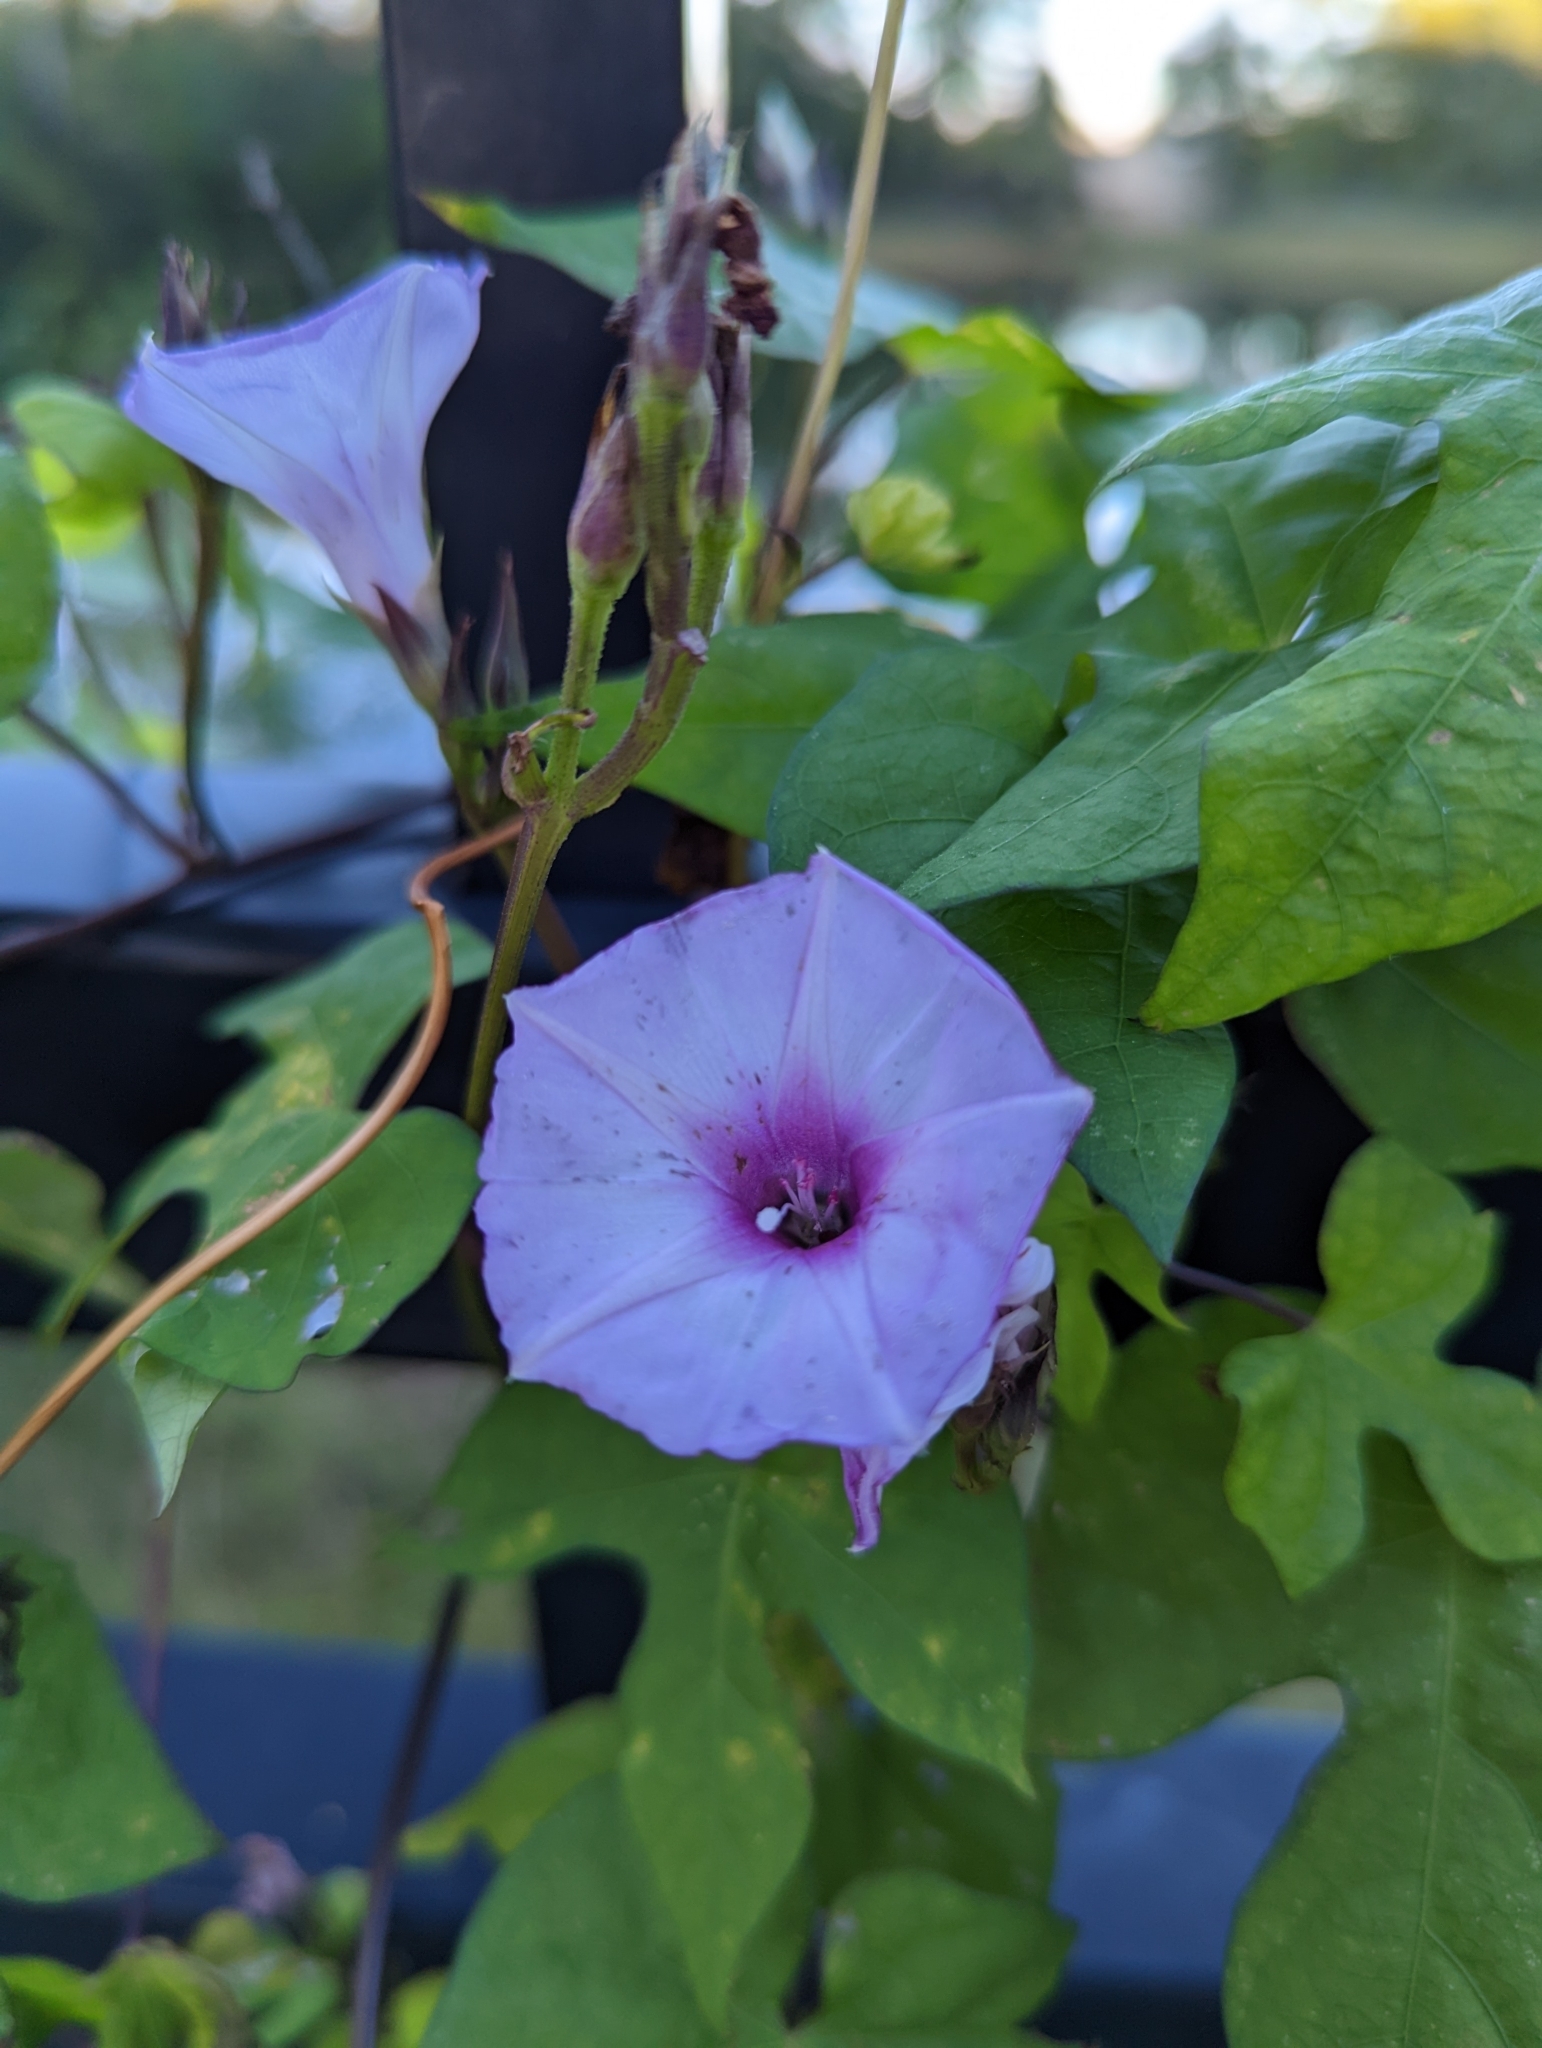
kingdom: Plantae
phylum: Tracheophyta
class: Magnoliopsida
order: Solanales
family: Convolvulaceae
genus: Ipomoea
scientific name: Ipomoea cordatotriloba
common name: Cotton morning glory
